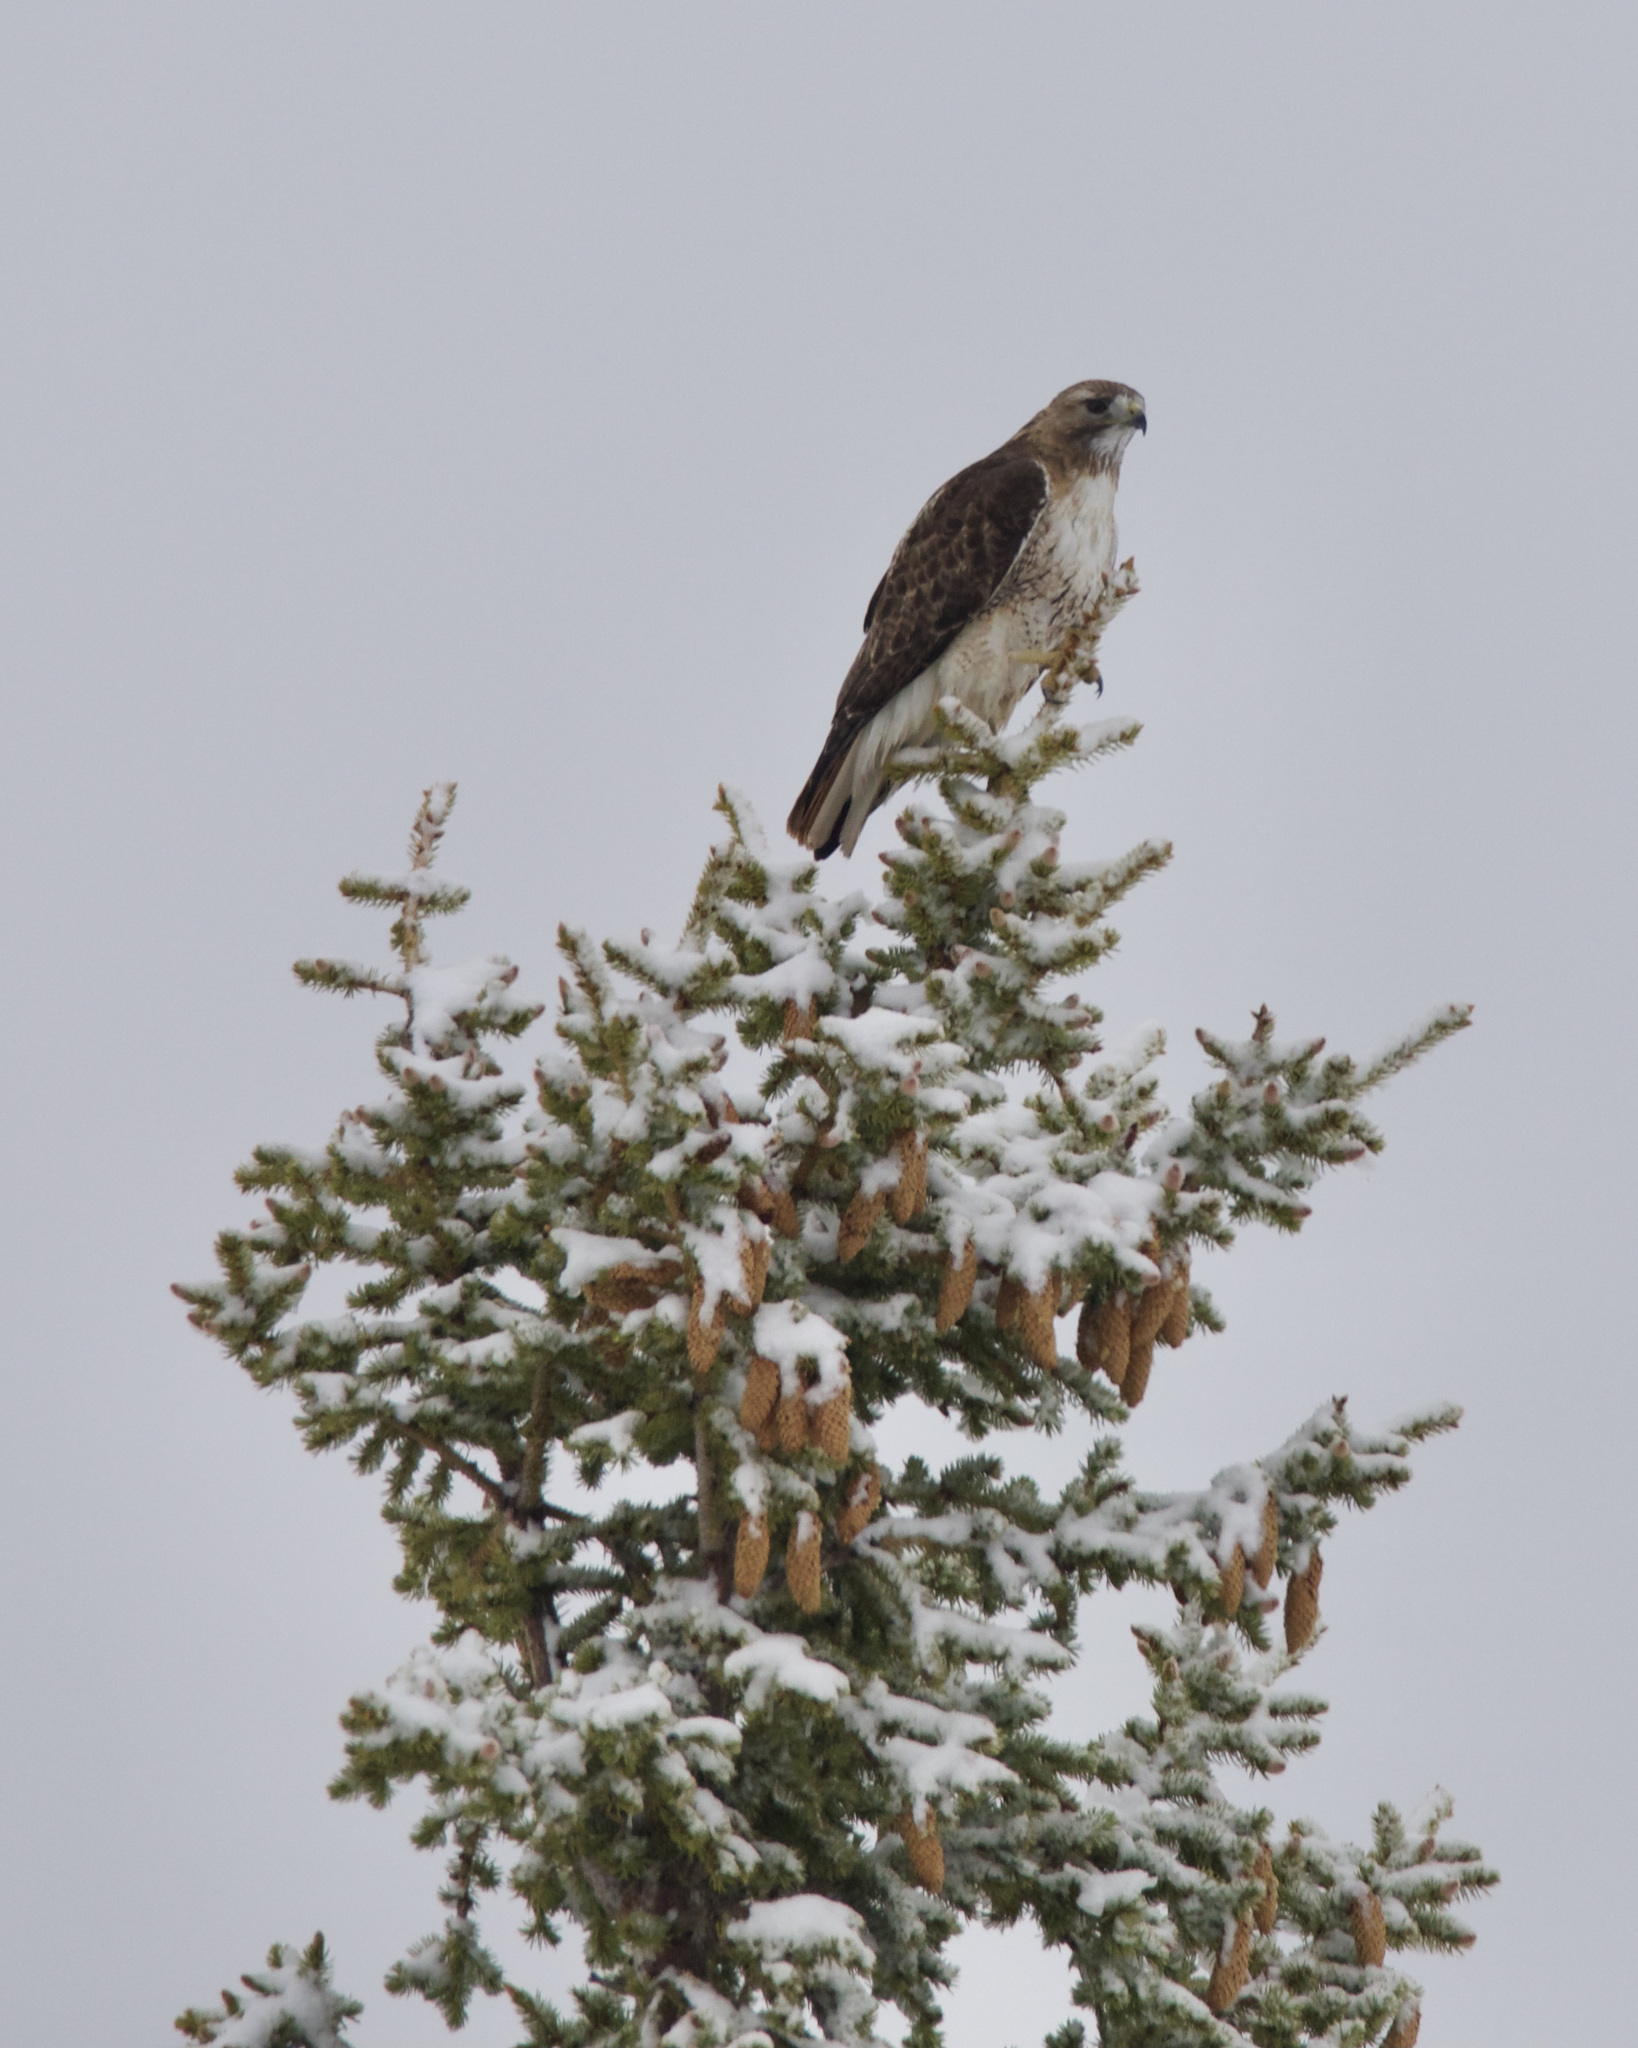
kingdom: Animalia
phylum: Chordata
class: Aves
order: Accipitriformes
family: Accipitridae
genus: Buteo
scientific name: Buteo jamaicensis
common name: Red-tailed hawk
